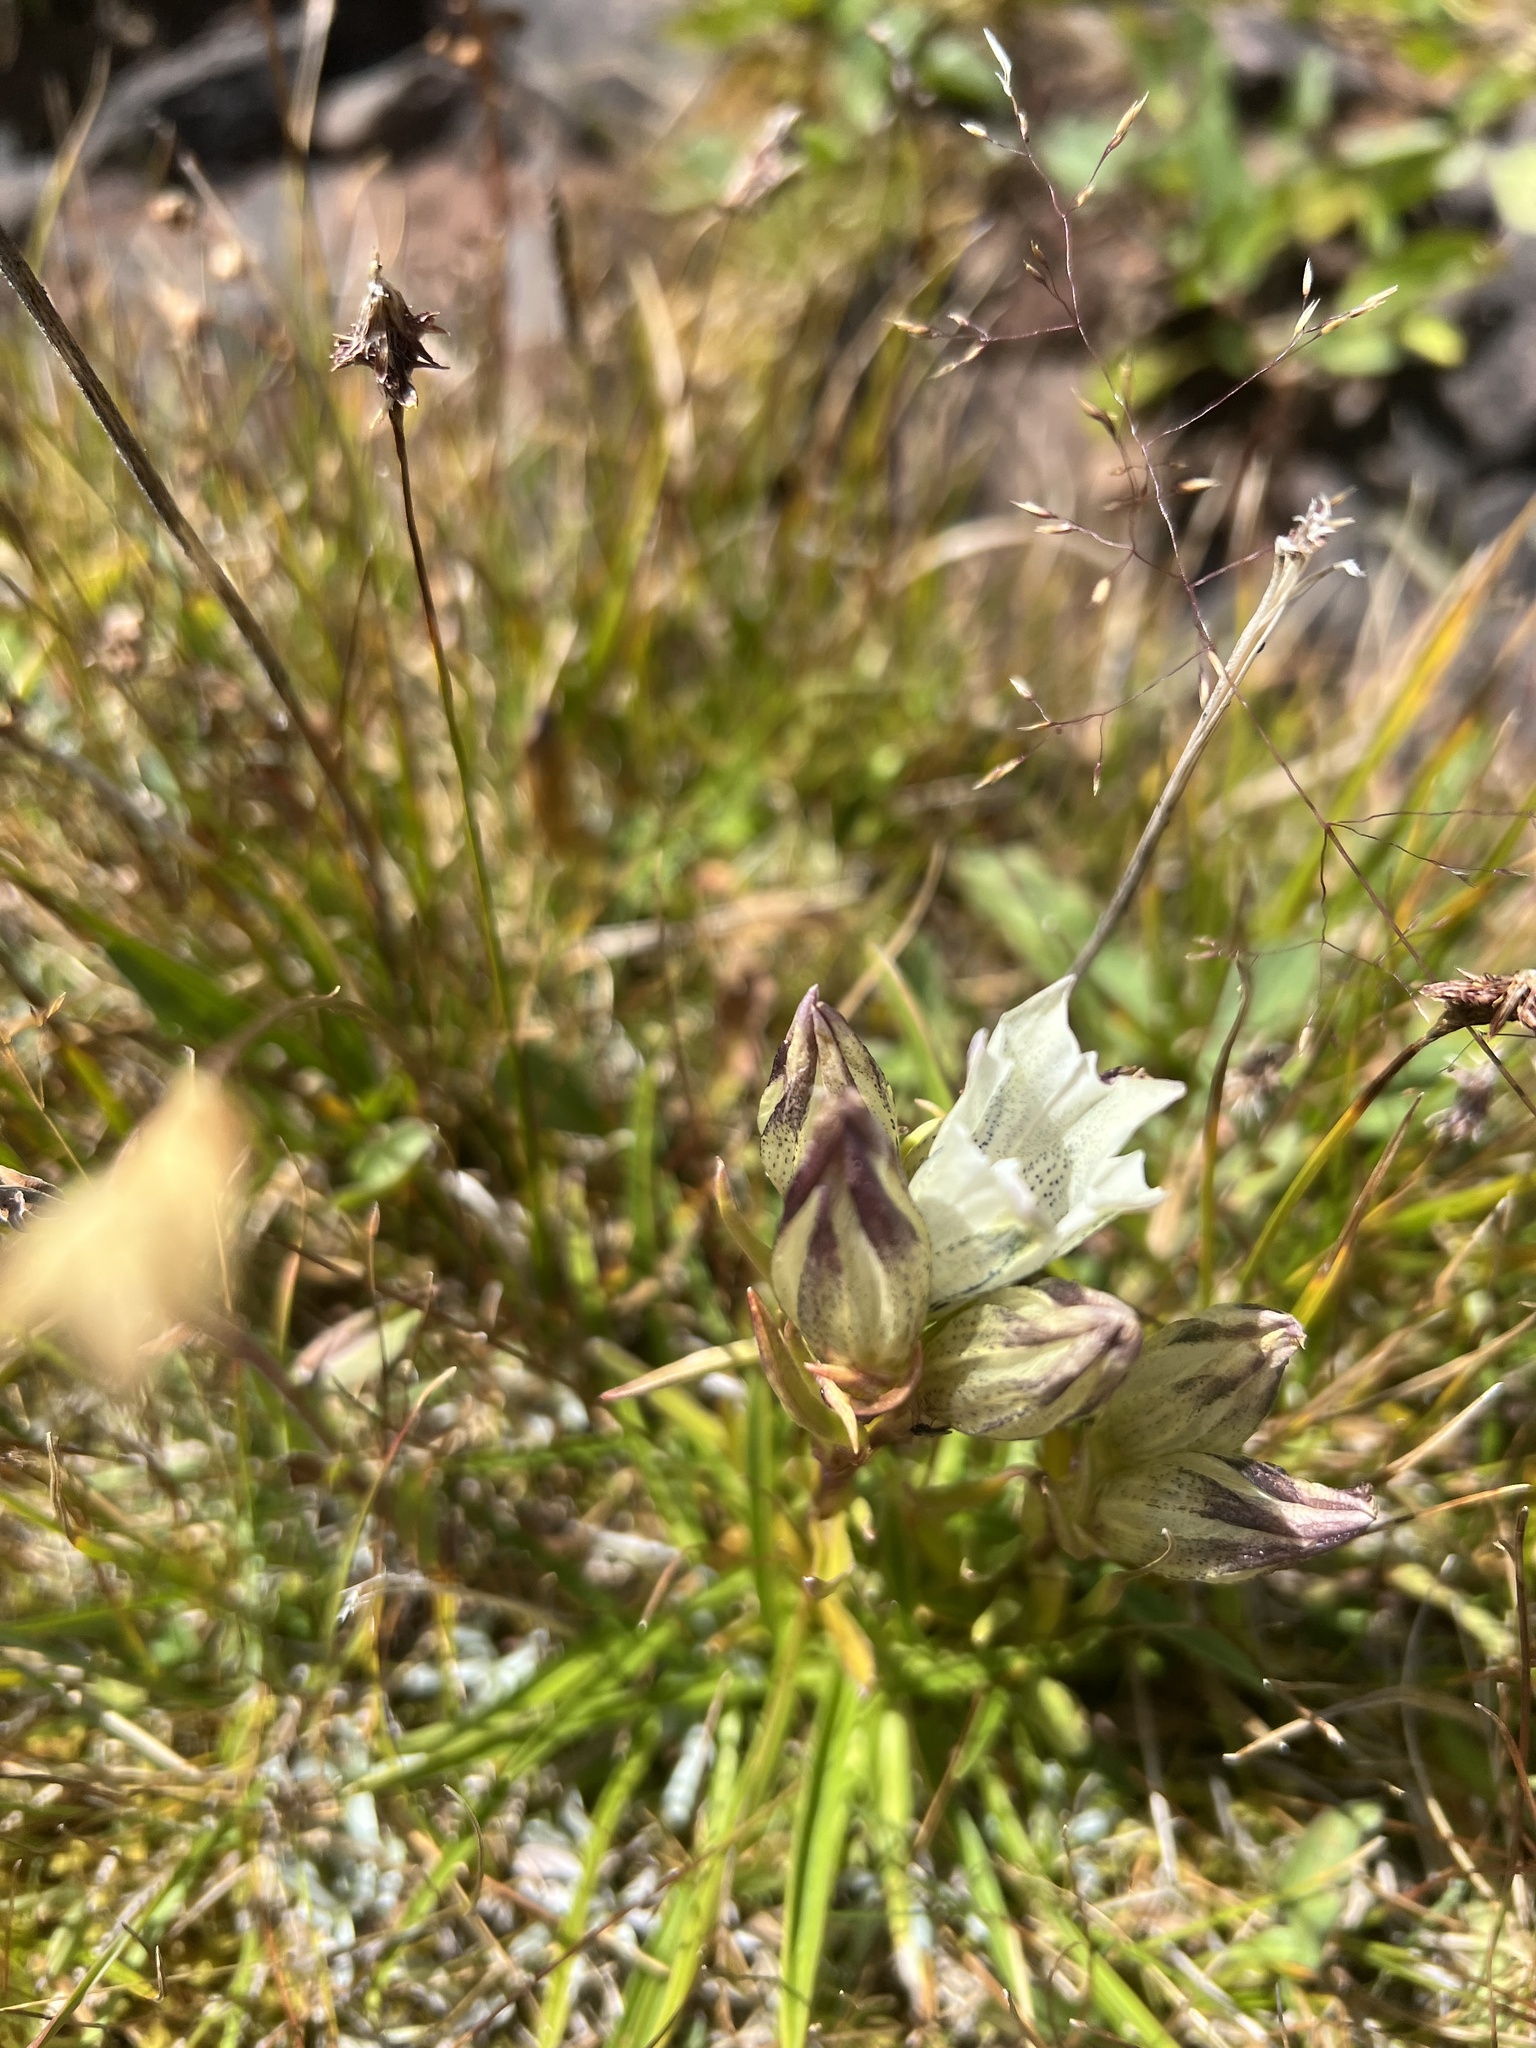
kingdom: Plantae
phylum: Tracheophyta
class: Magnoliopsida
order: Gentianales
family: Gentianaceae
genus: Gentiana
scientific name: Gentiana algida
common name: Arctic gentian
